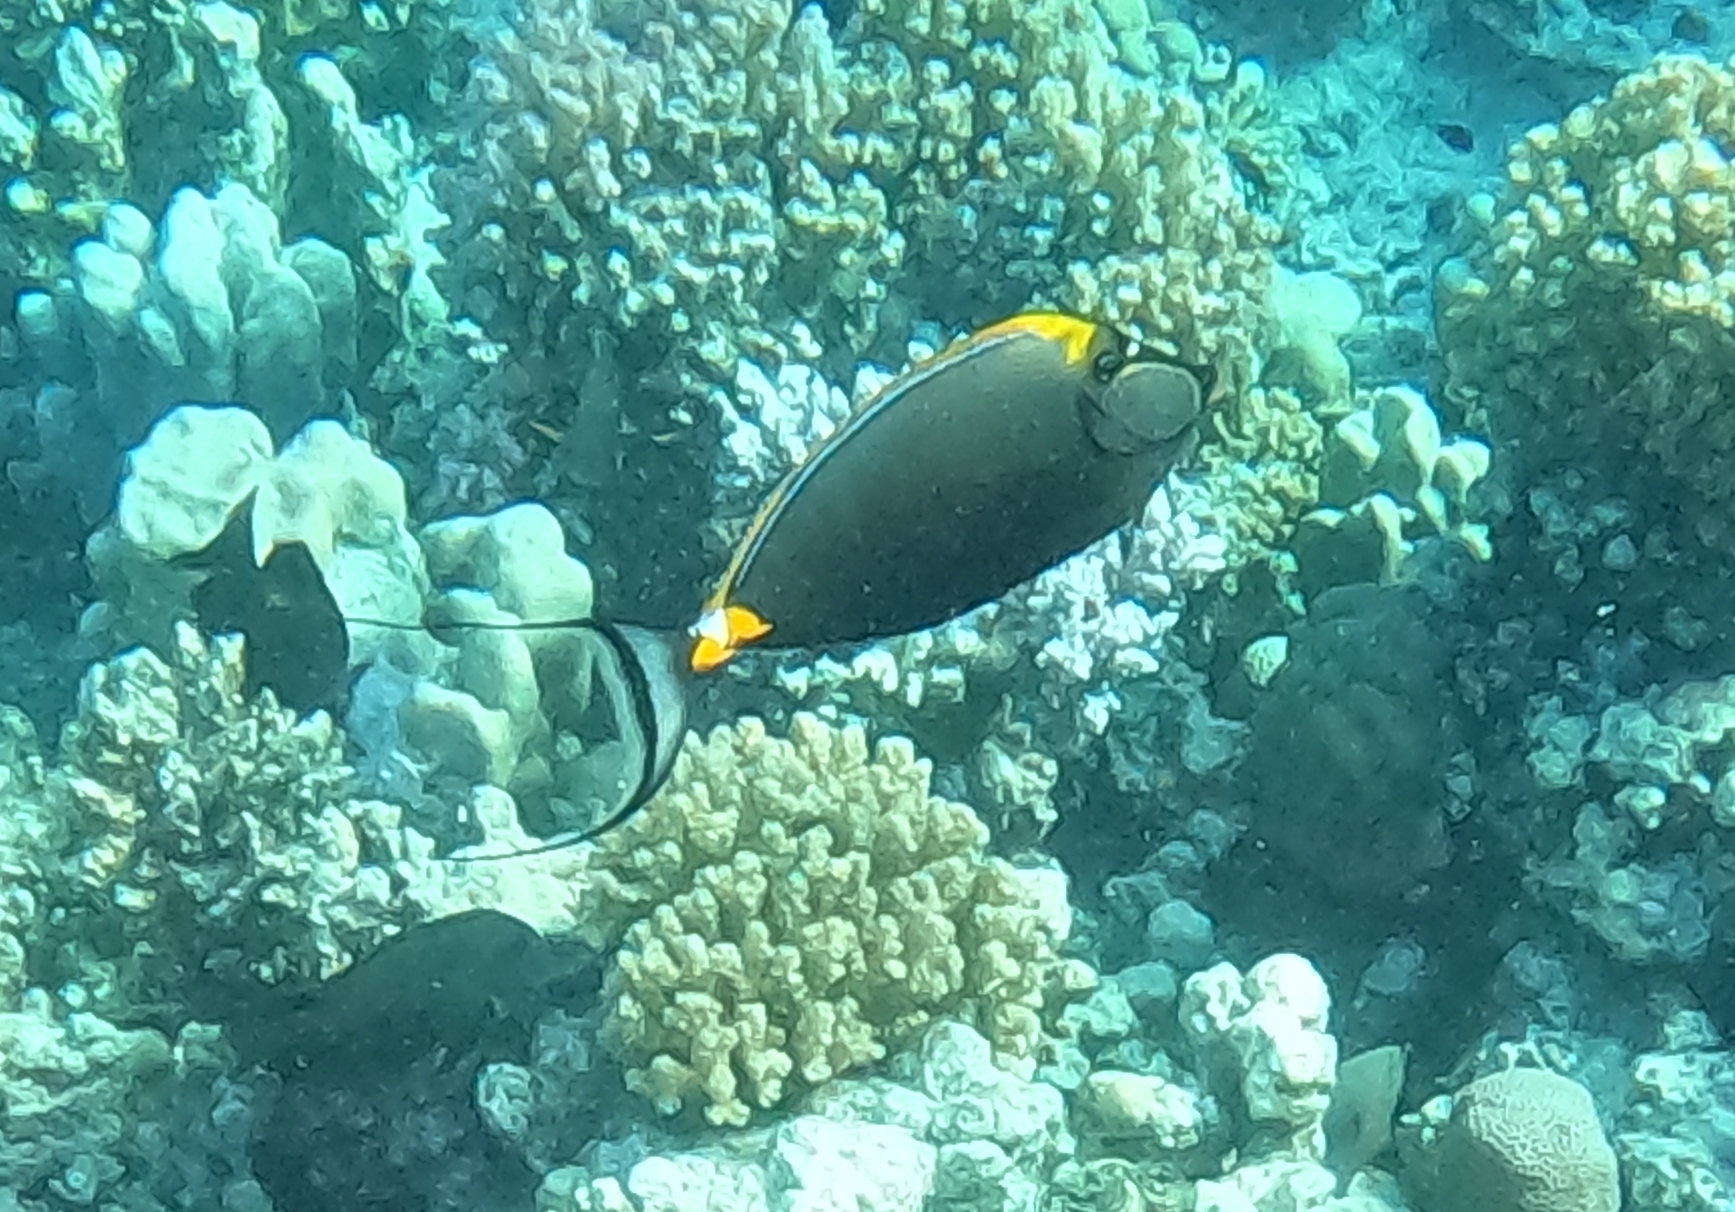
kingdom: Animalia
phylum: Chordata
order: Perciformes
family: Acanthuridae
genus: Naso
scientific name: Naso elegans
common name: Orangespine unicornfish
